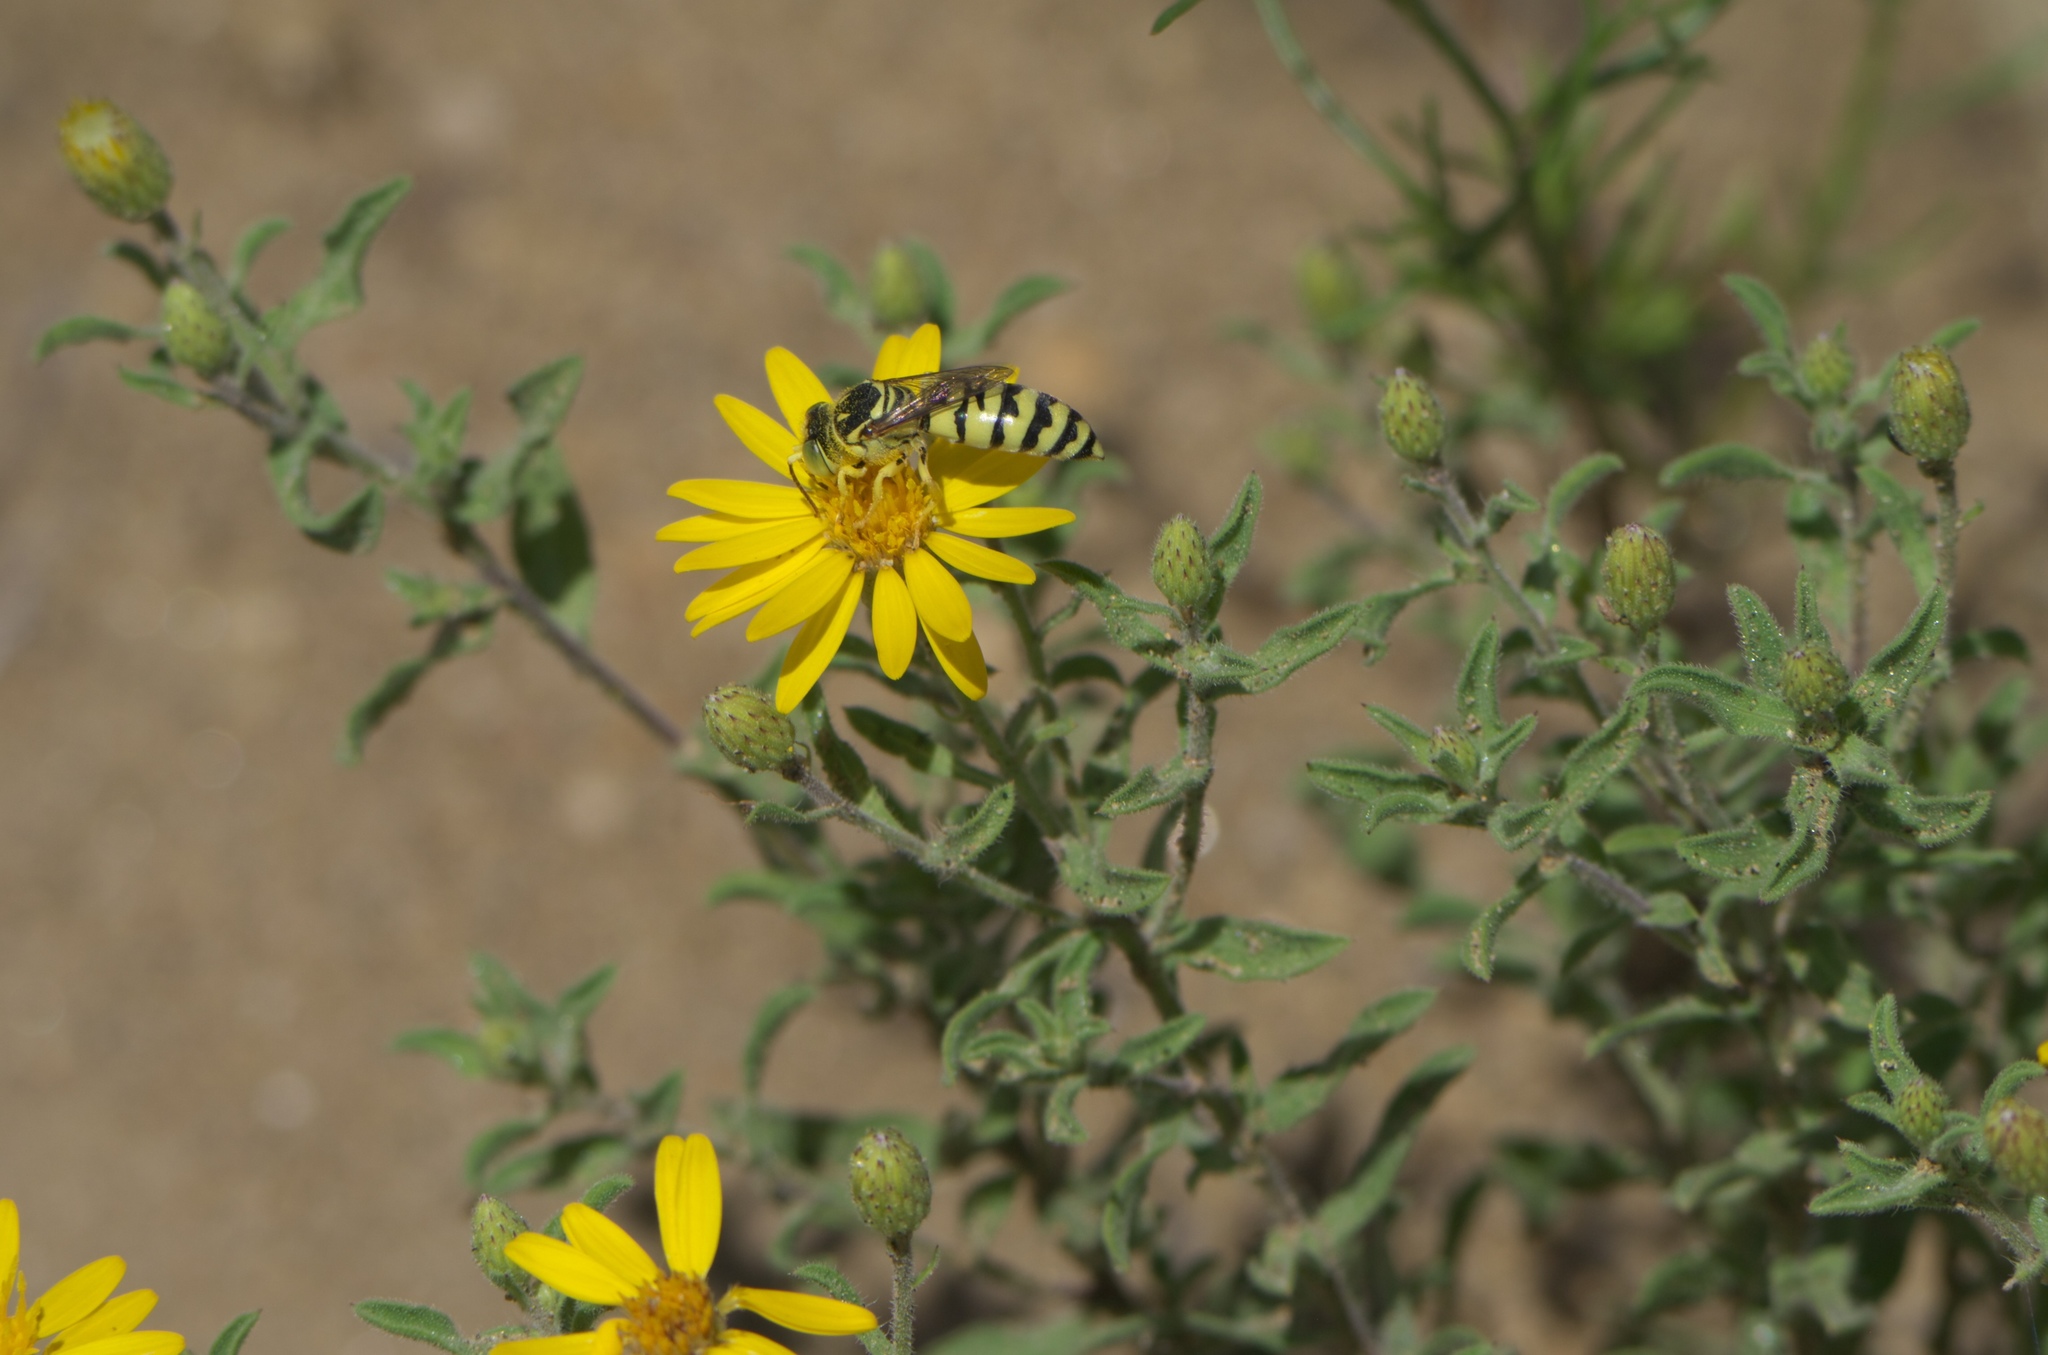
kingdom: Plantae
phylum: Tracheophyta
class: Magnoliopsida
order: Asterales
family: Asteraceae
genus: Heterotheca
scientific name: Heterotheca villosa
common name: Hairy false goldenaster
